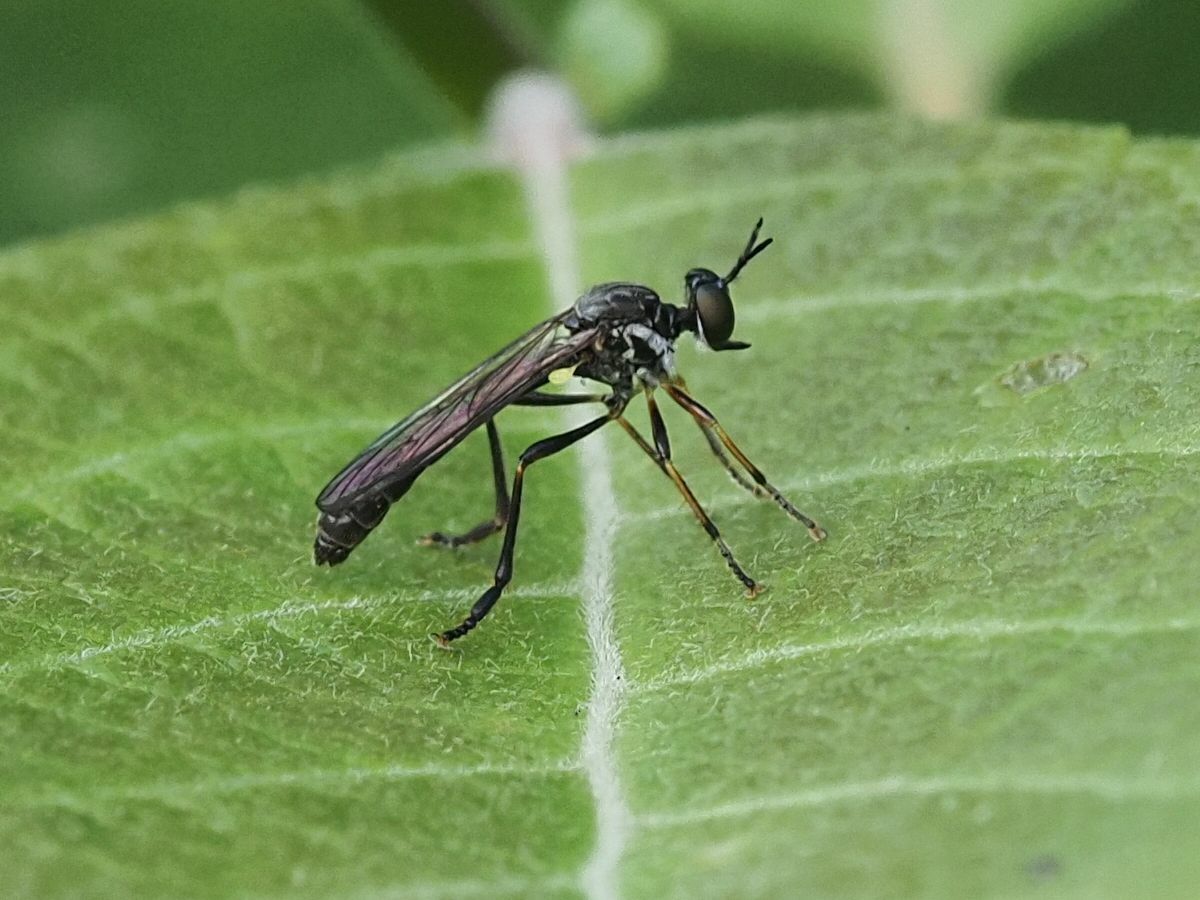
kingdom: Animalia
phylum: Arthropoda
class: Insecta
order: Diptera
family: Asilidae
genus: Dioctria
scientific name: Dioctria hyalipennis
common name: Stripe-legged robberfly
